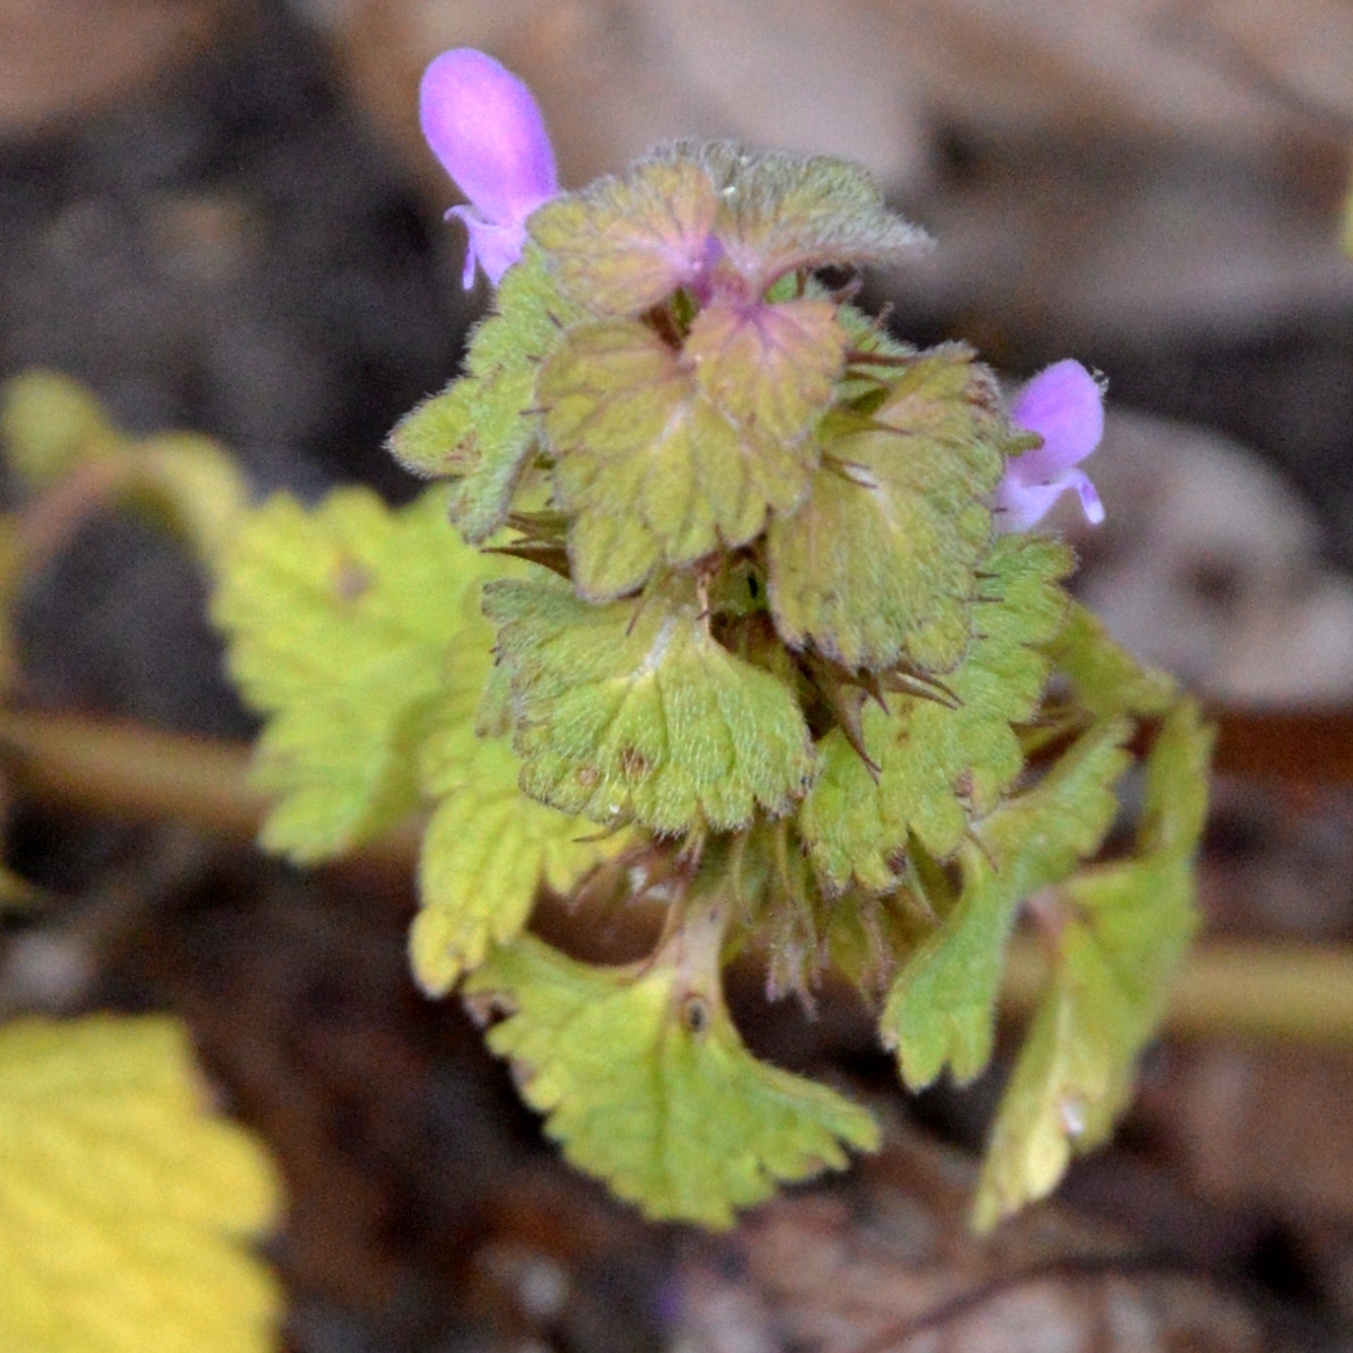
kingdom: Plantae
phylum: Tracheophyta
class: Magnoliopsida
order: Lamiales
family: Lamiaceae
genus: Lamium
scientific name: Lamium purpureum
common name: Red dead-nettle
